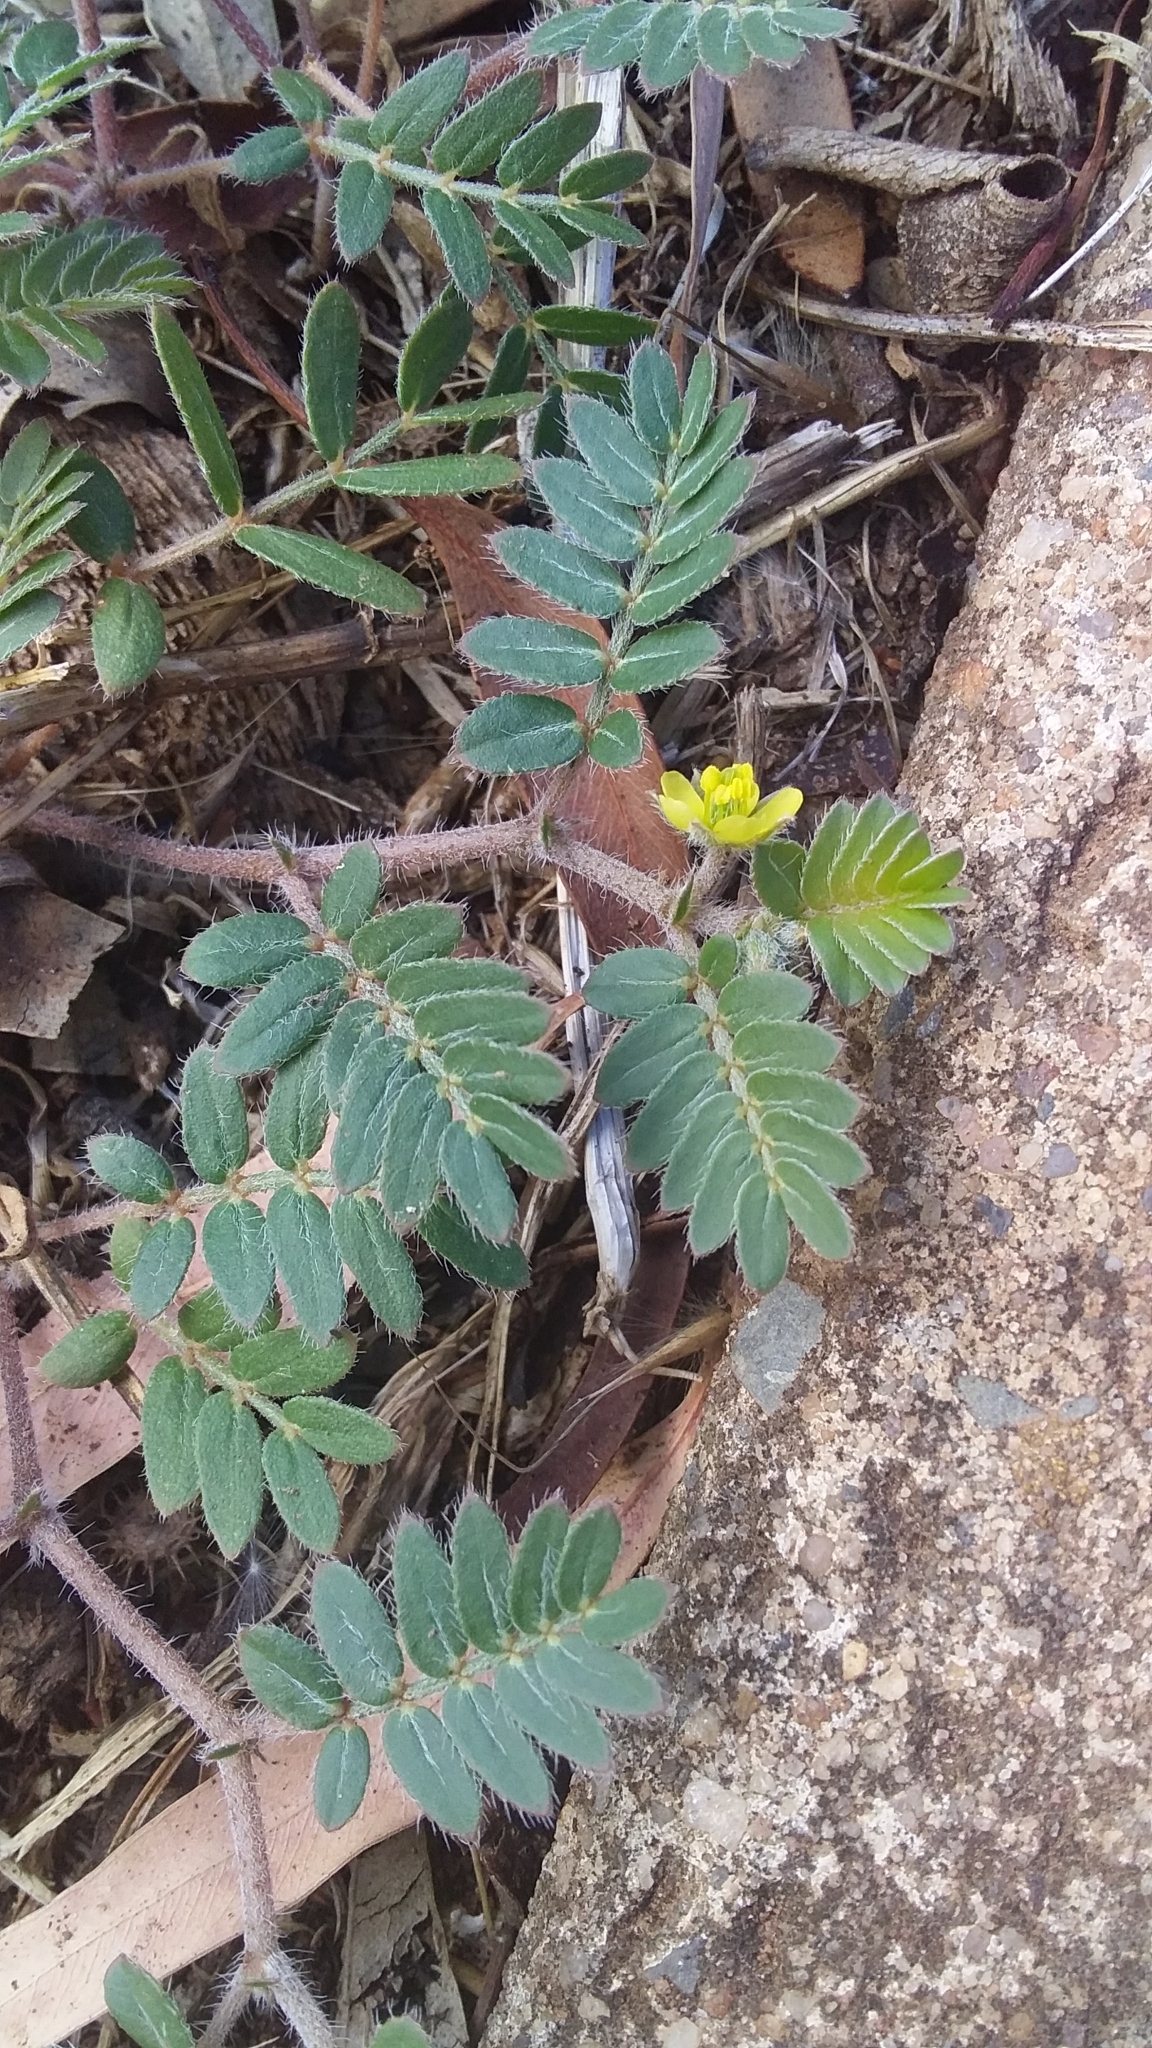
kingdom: Plantae
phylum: Tracheophyta
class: Magnoliopsida
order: Zygophyllales
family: Zygophyllaceae
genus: Tribulus
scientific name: Tribulus terrestris
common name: Puncturevine
